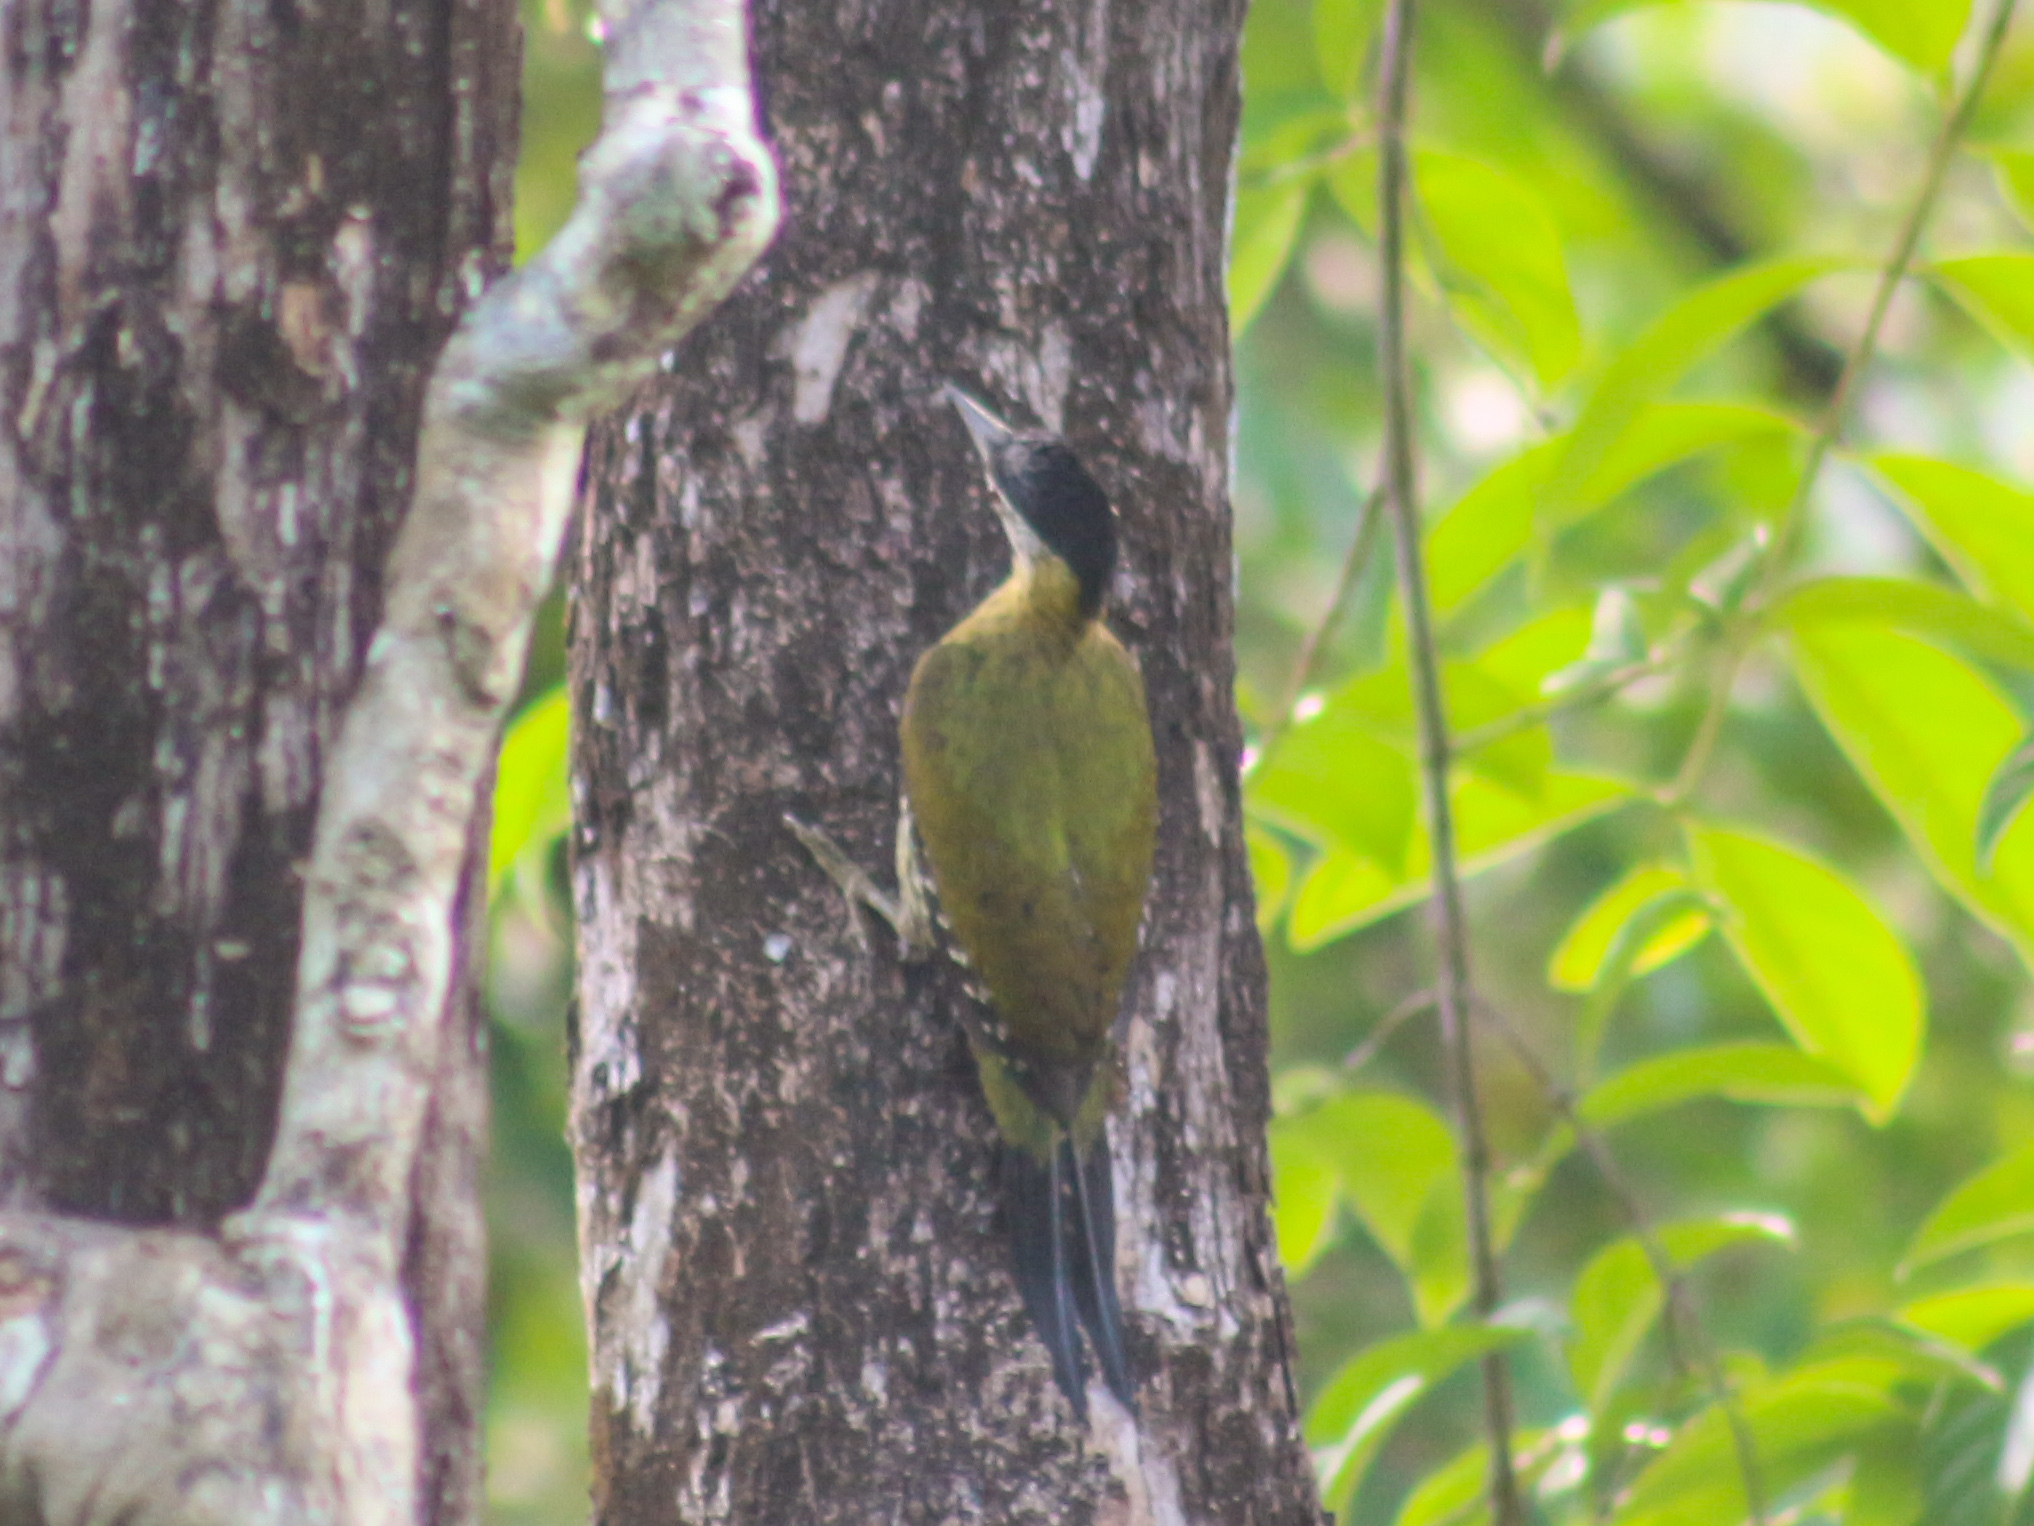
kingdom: Animalia
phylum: Chordata
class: Aves
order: Piciformes
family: Picidae
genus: Picus
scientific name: Picus vittatus
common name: Laced woodpecker
